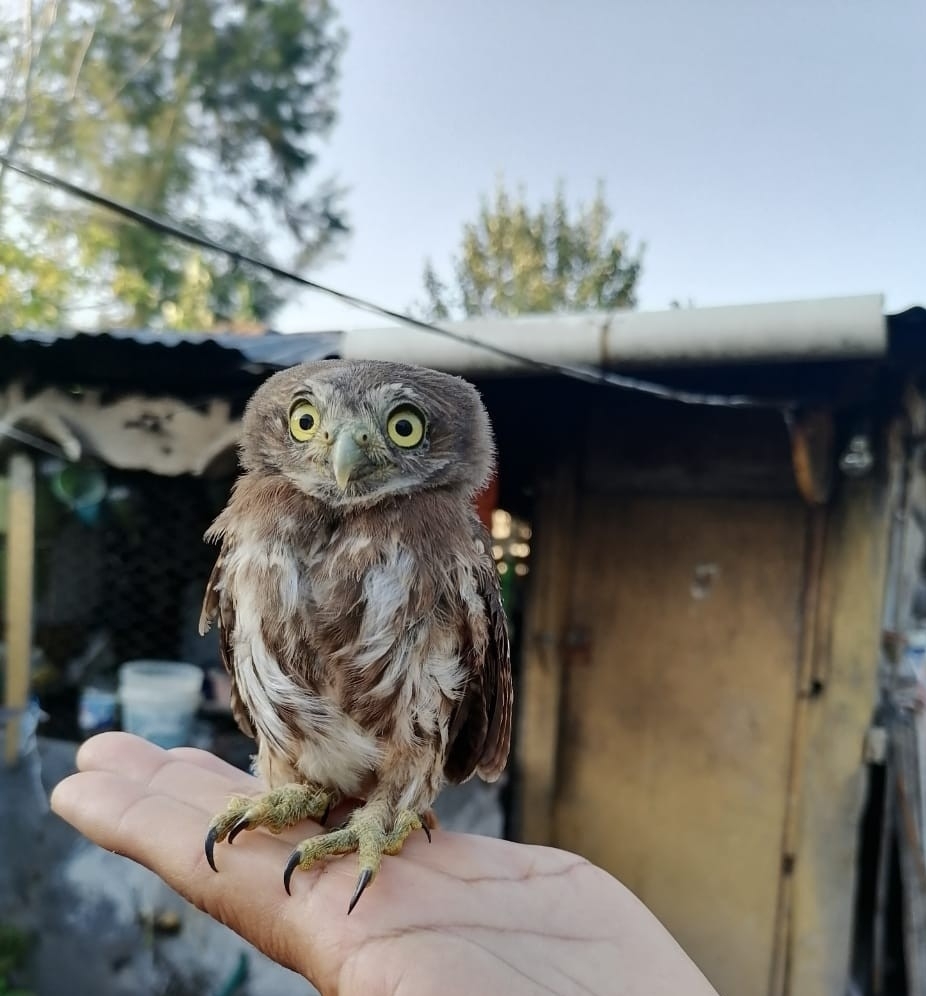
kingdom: Animalia
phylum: Chordata
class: Aves
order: Strigiformes
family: Strigidae
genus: Glaucidium
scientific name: Glaucidium brasilianum
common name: Ferruginous pygmy-owl
